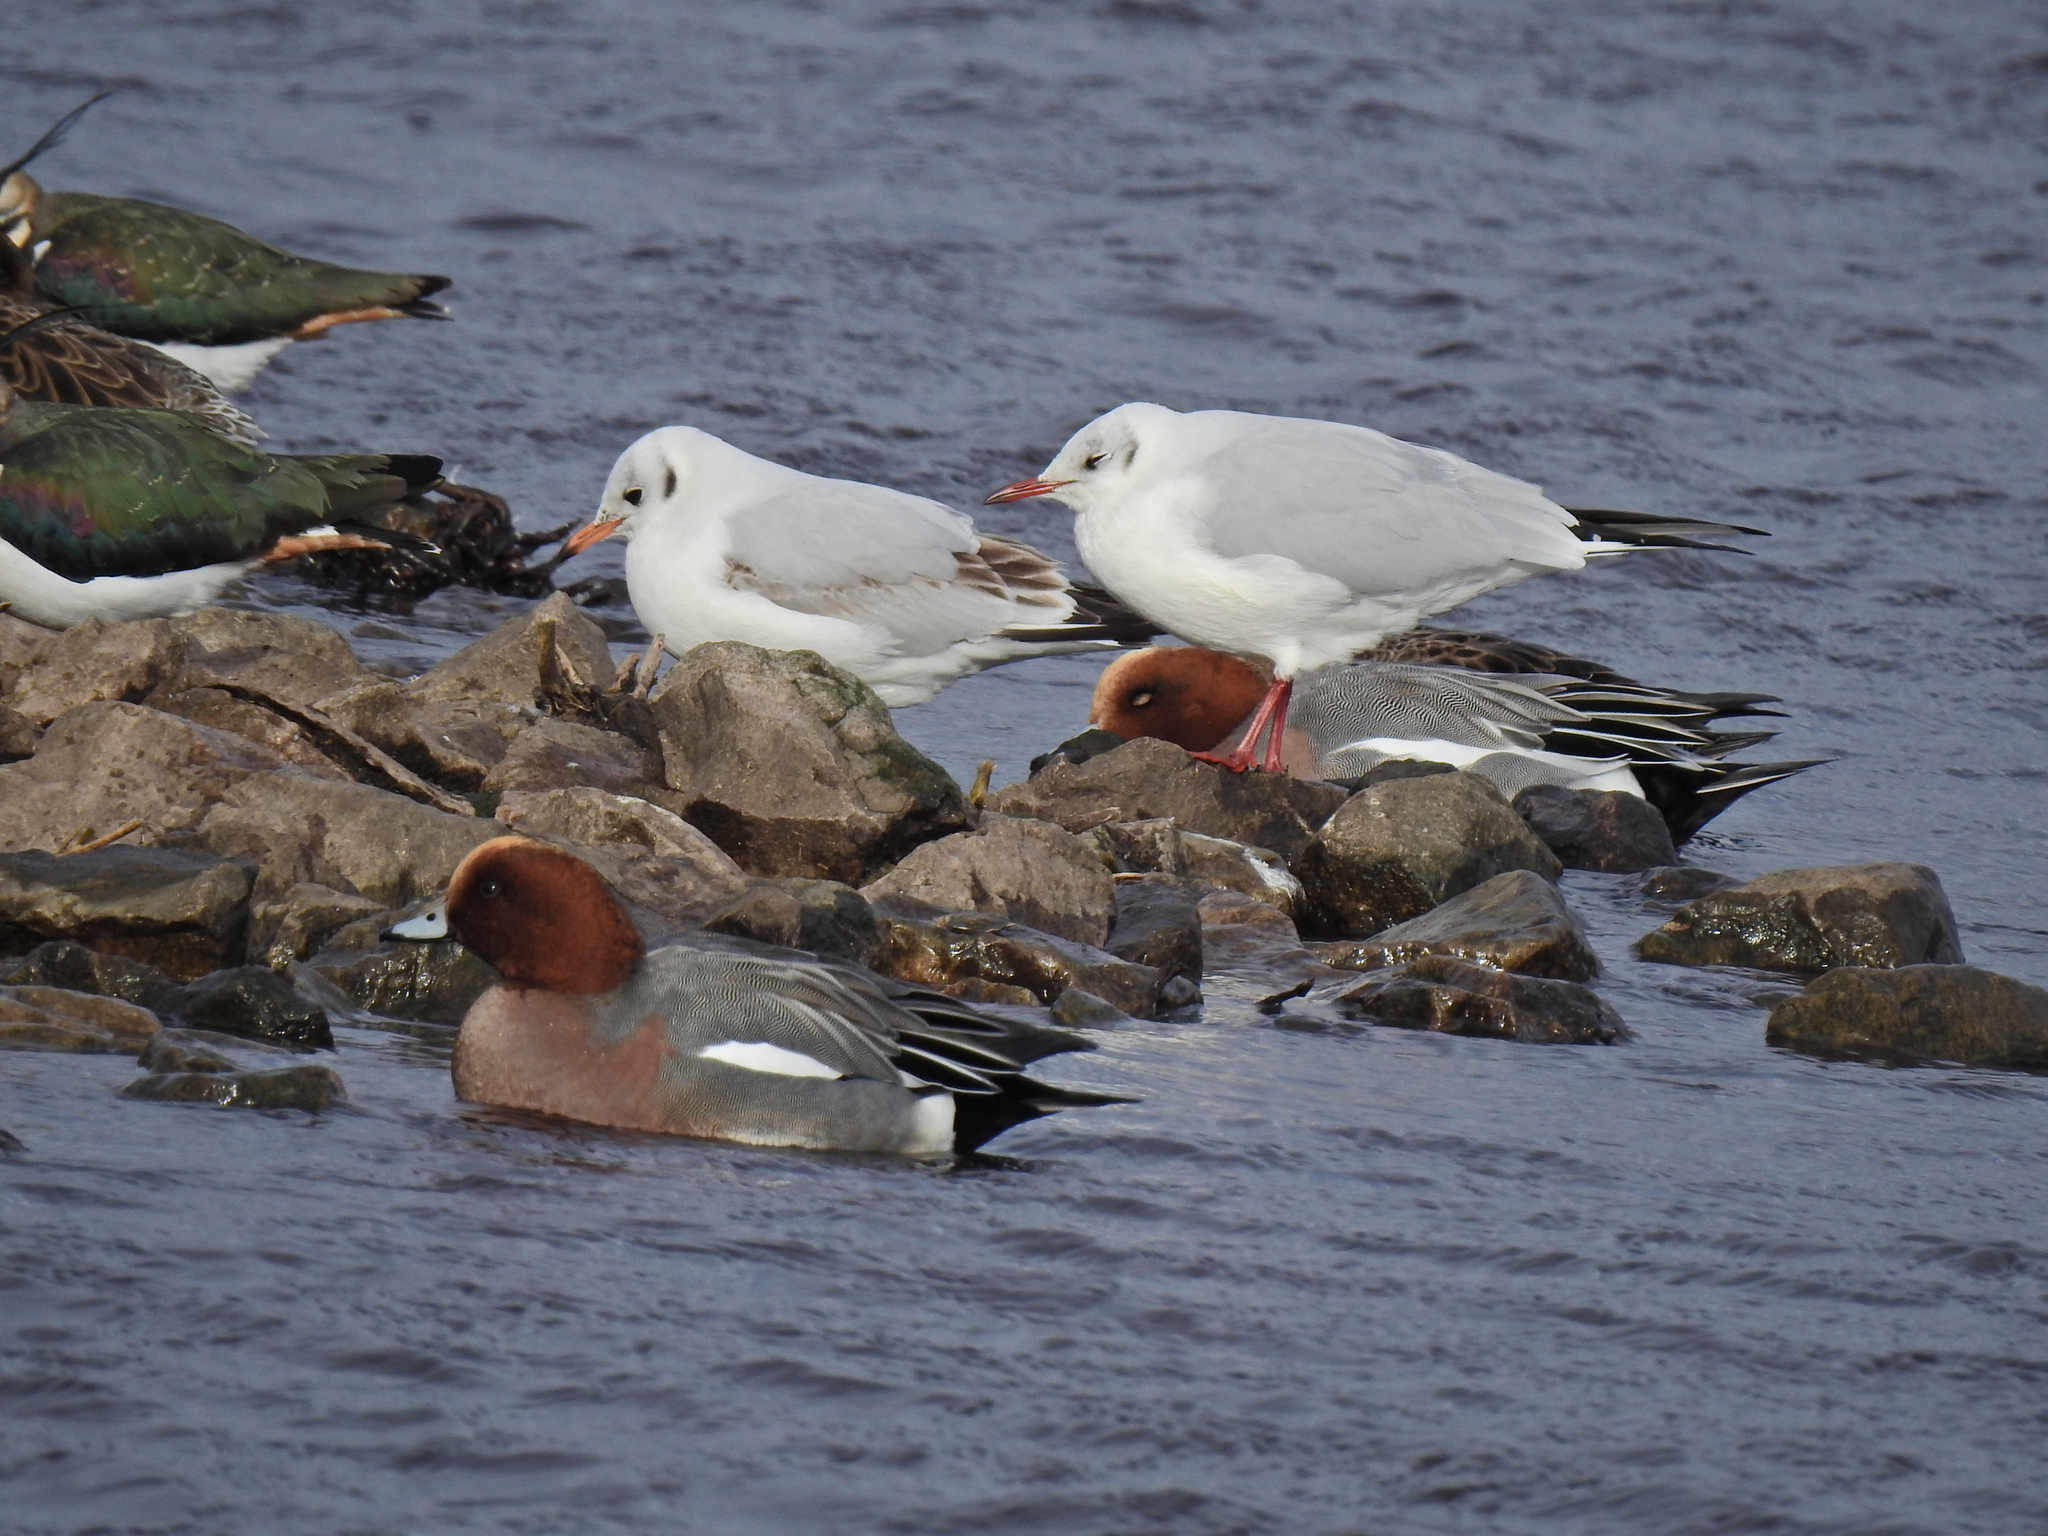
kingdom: Animalia
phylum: Chordata
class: Aves
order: Charadriiformes
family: Laridae
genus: Chroicocephalus
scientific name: Chroicocephalus ridibundus
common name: Black-headed gull
